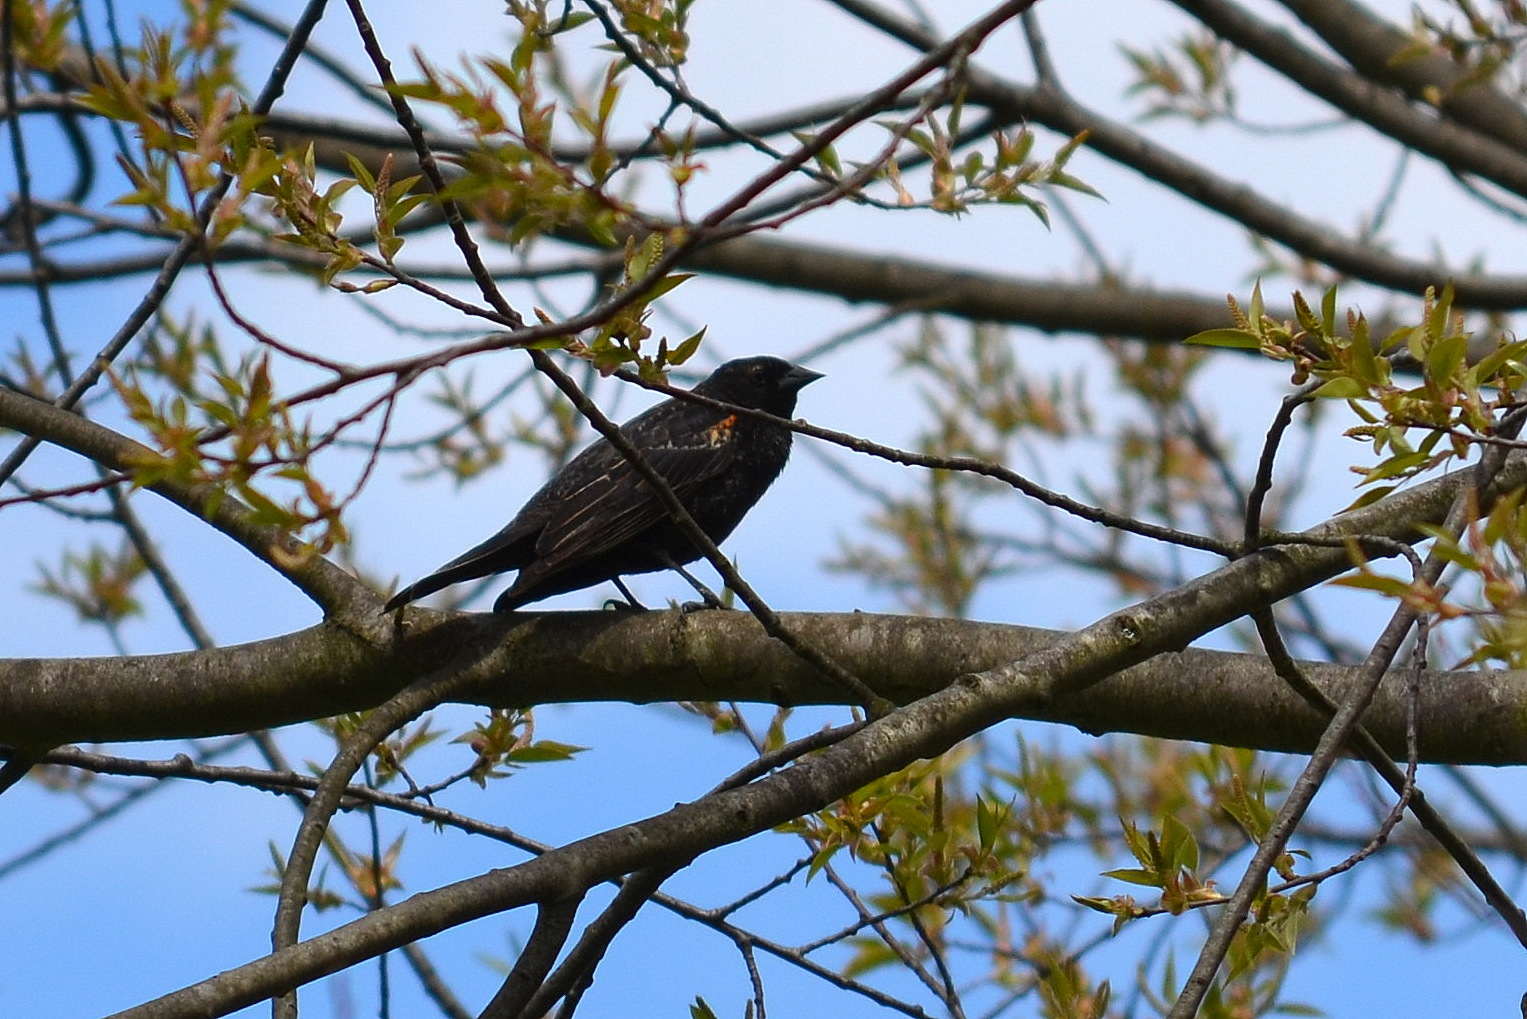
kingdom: Animalia
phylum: Chordata
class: Aves
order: Passeriformes
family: Icteridae
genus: Agelaius
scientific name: Agelaius phoeniceus
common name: Red-winged blackbird
